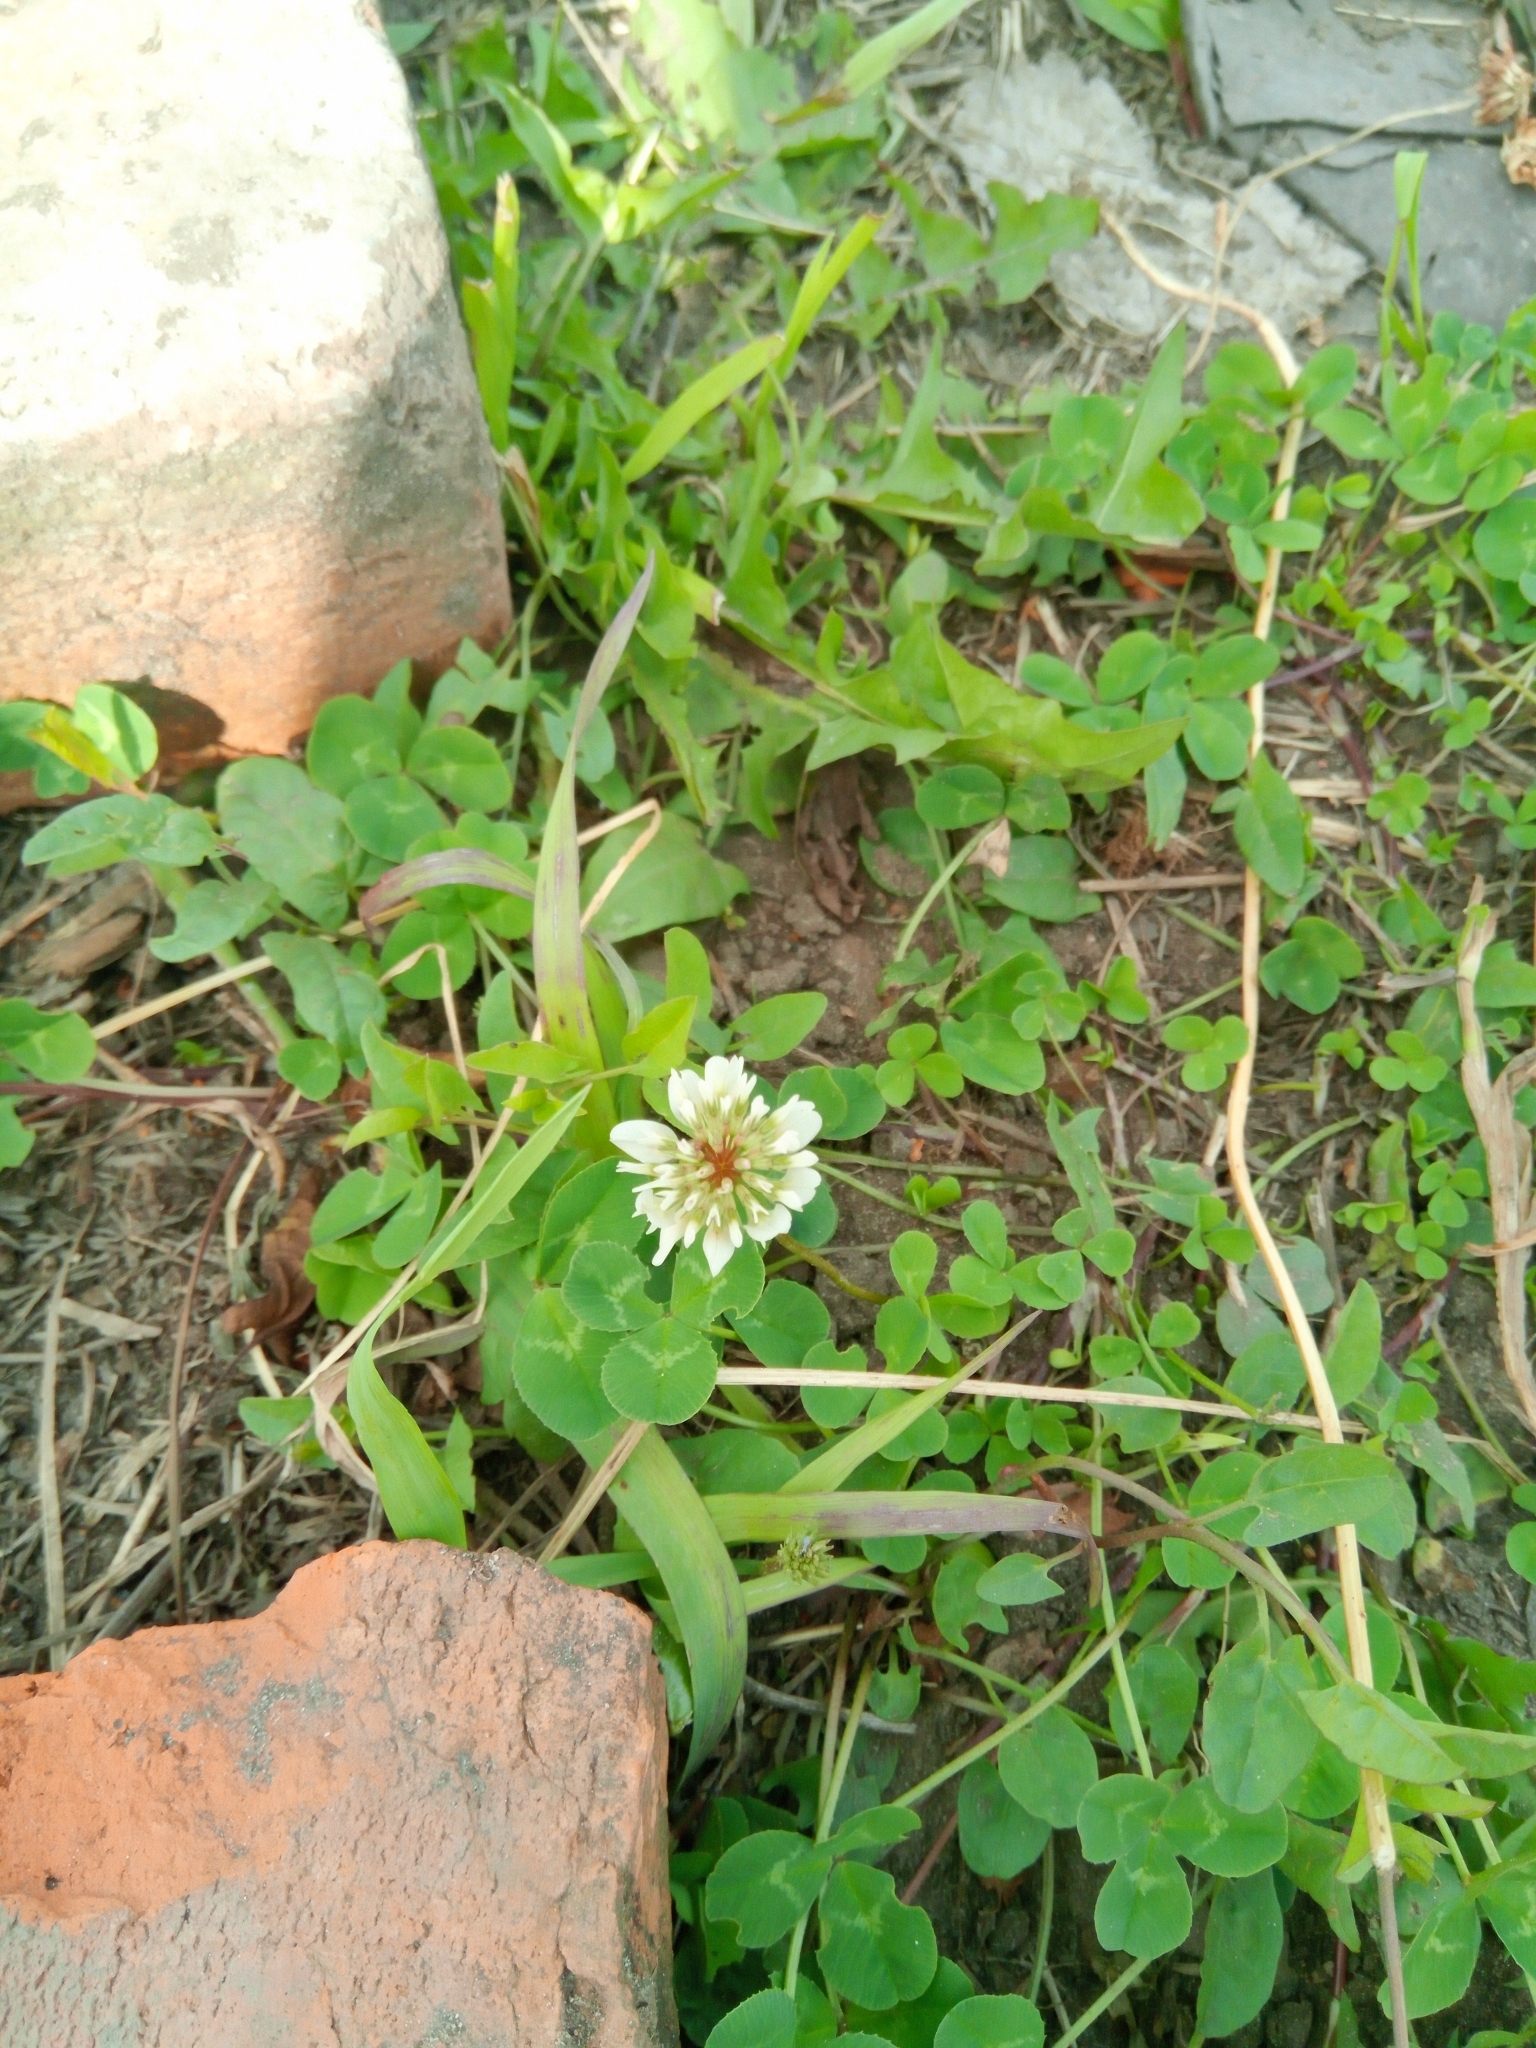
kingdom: Plantae
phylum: Tracheophyta
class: Magnoliopsida
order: Fabales
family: Fabaceae
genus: Trifolium
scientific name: Trifolium repens
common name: White clover
